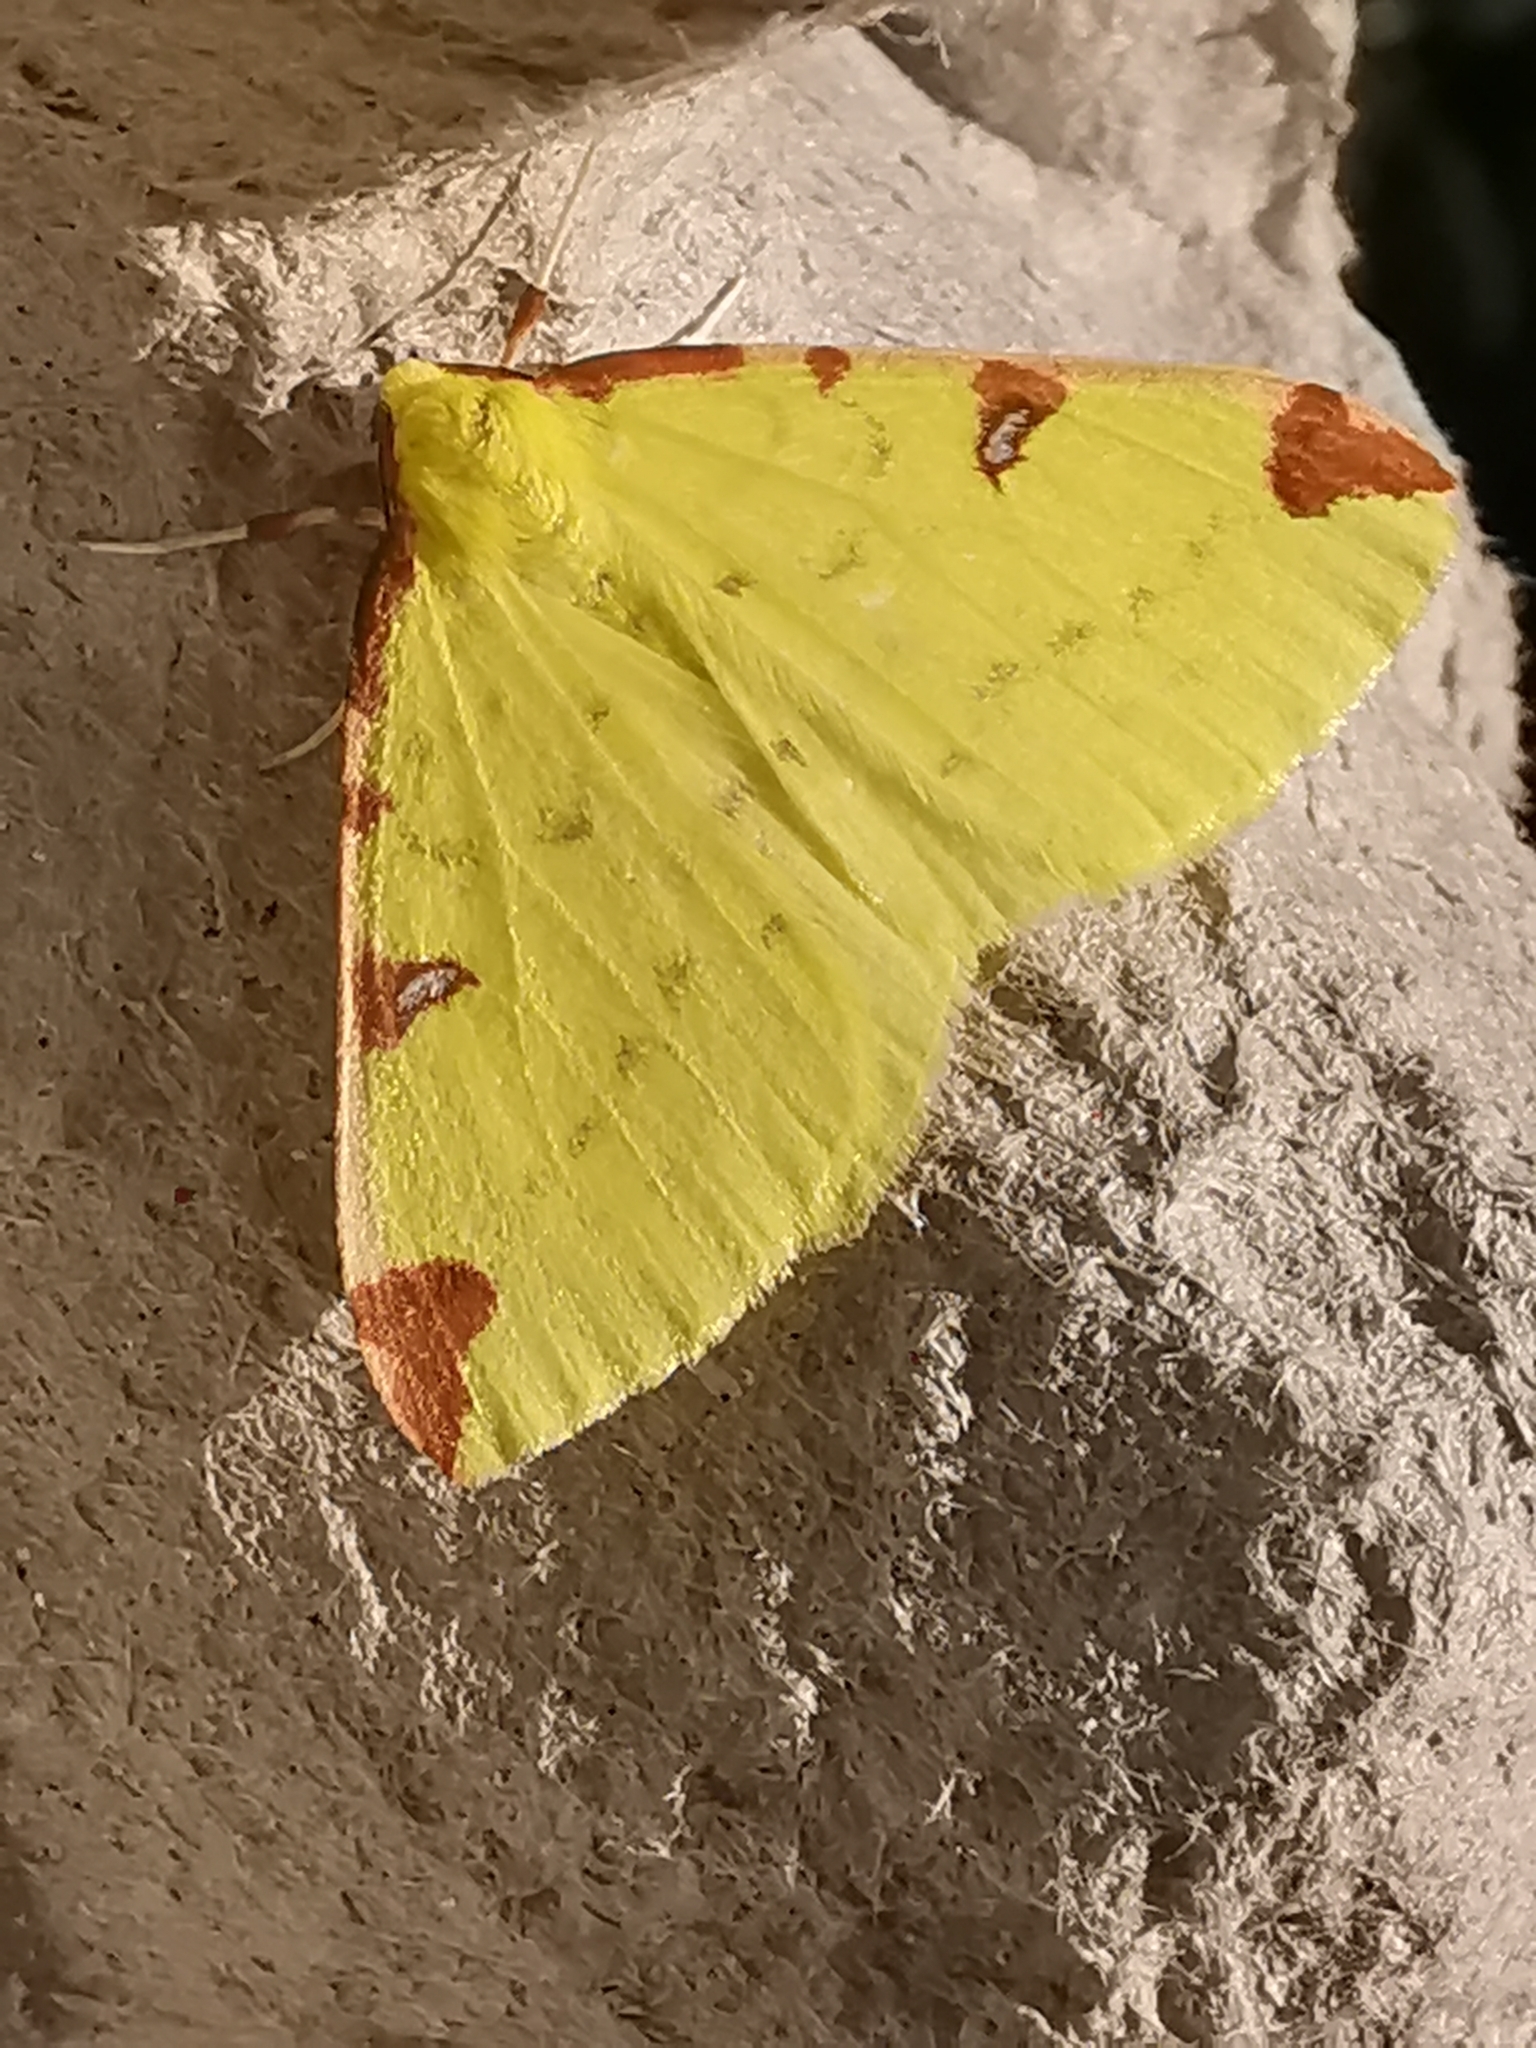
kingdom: Animalia
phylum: Arthropoda
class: Insecta
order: Lepidoptera
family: Geometridae
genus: Opisthograptis
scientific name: Opisthograptis luteolata
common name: Brimstone moth
